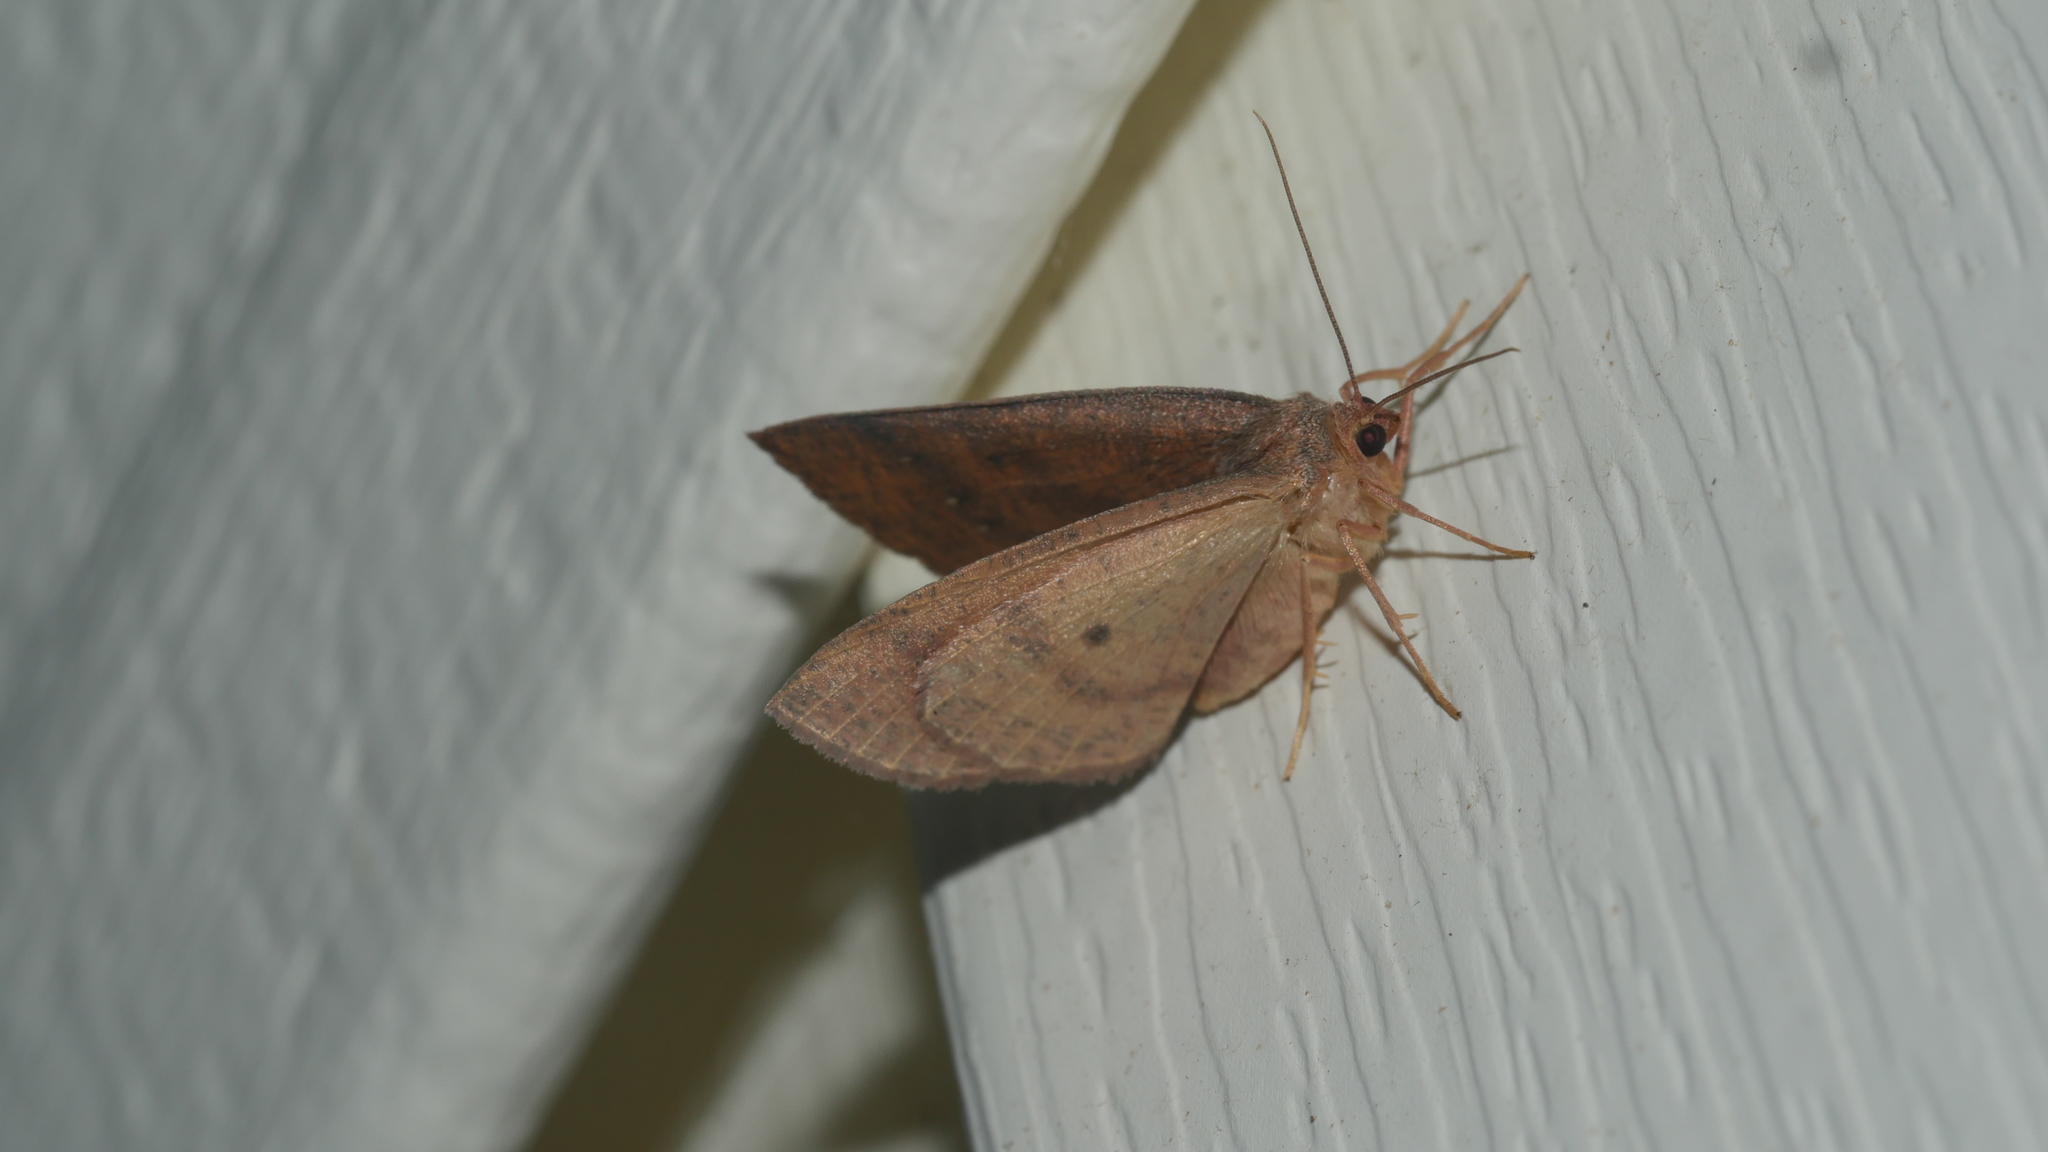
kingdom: Animalia
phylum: Arthropoda
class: Insecta
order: Lepidoptera
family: Geometridae
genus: Ilexia
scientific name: Ilexia intractata
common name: Black-dotted ruddy moth
